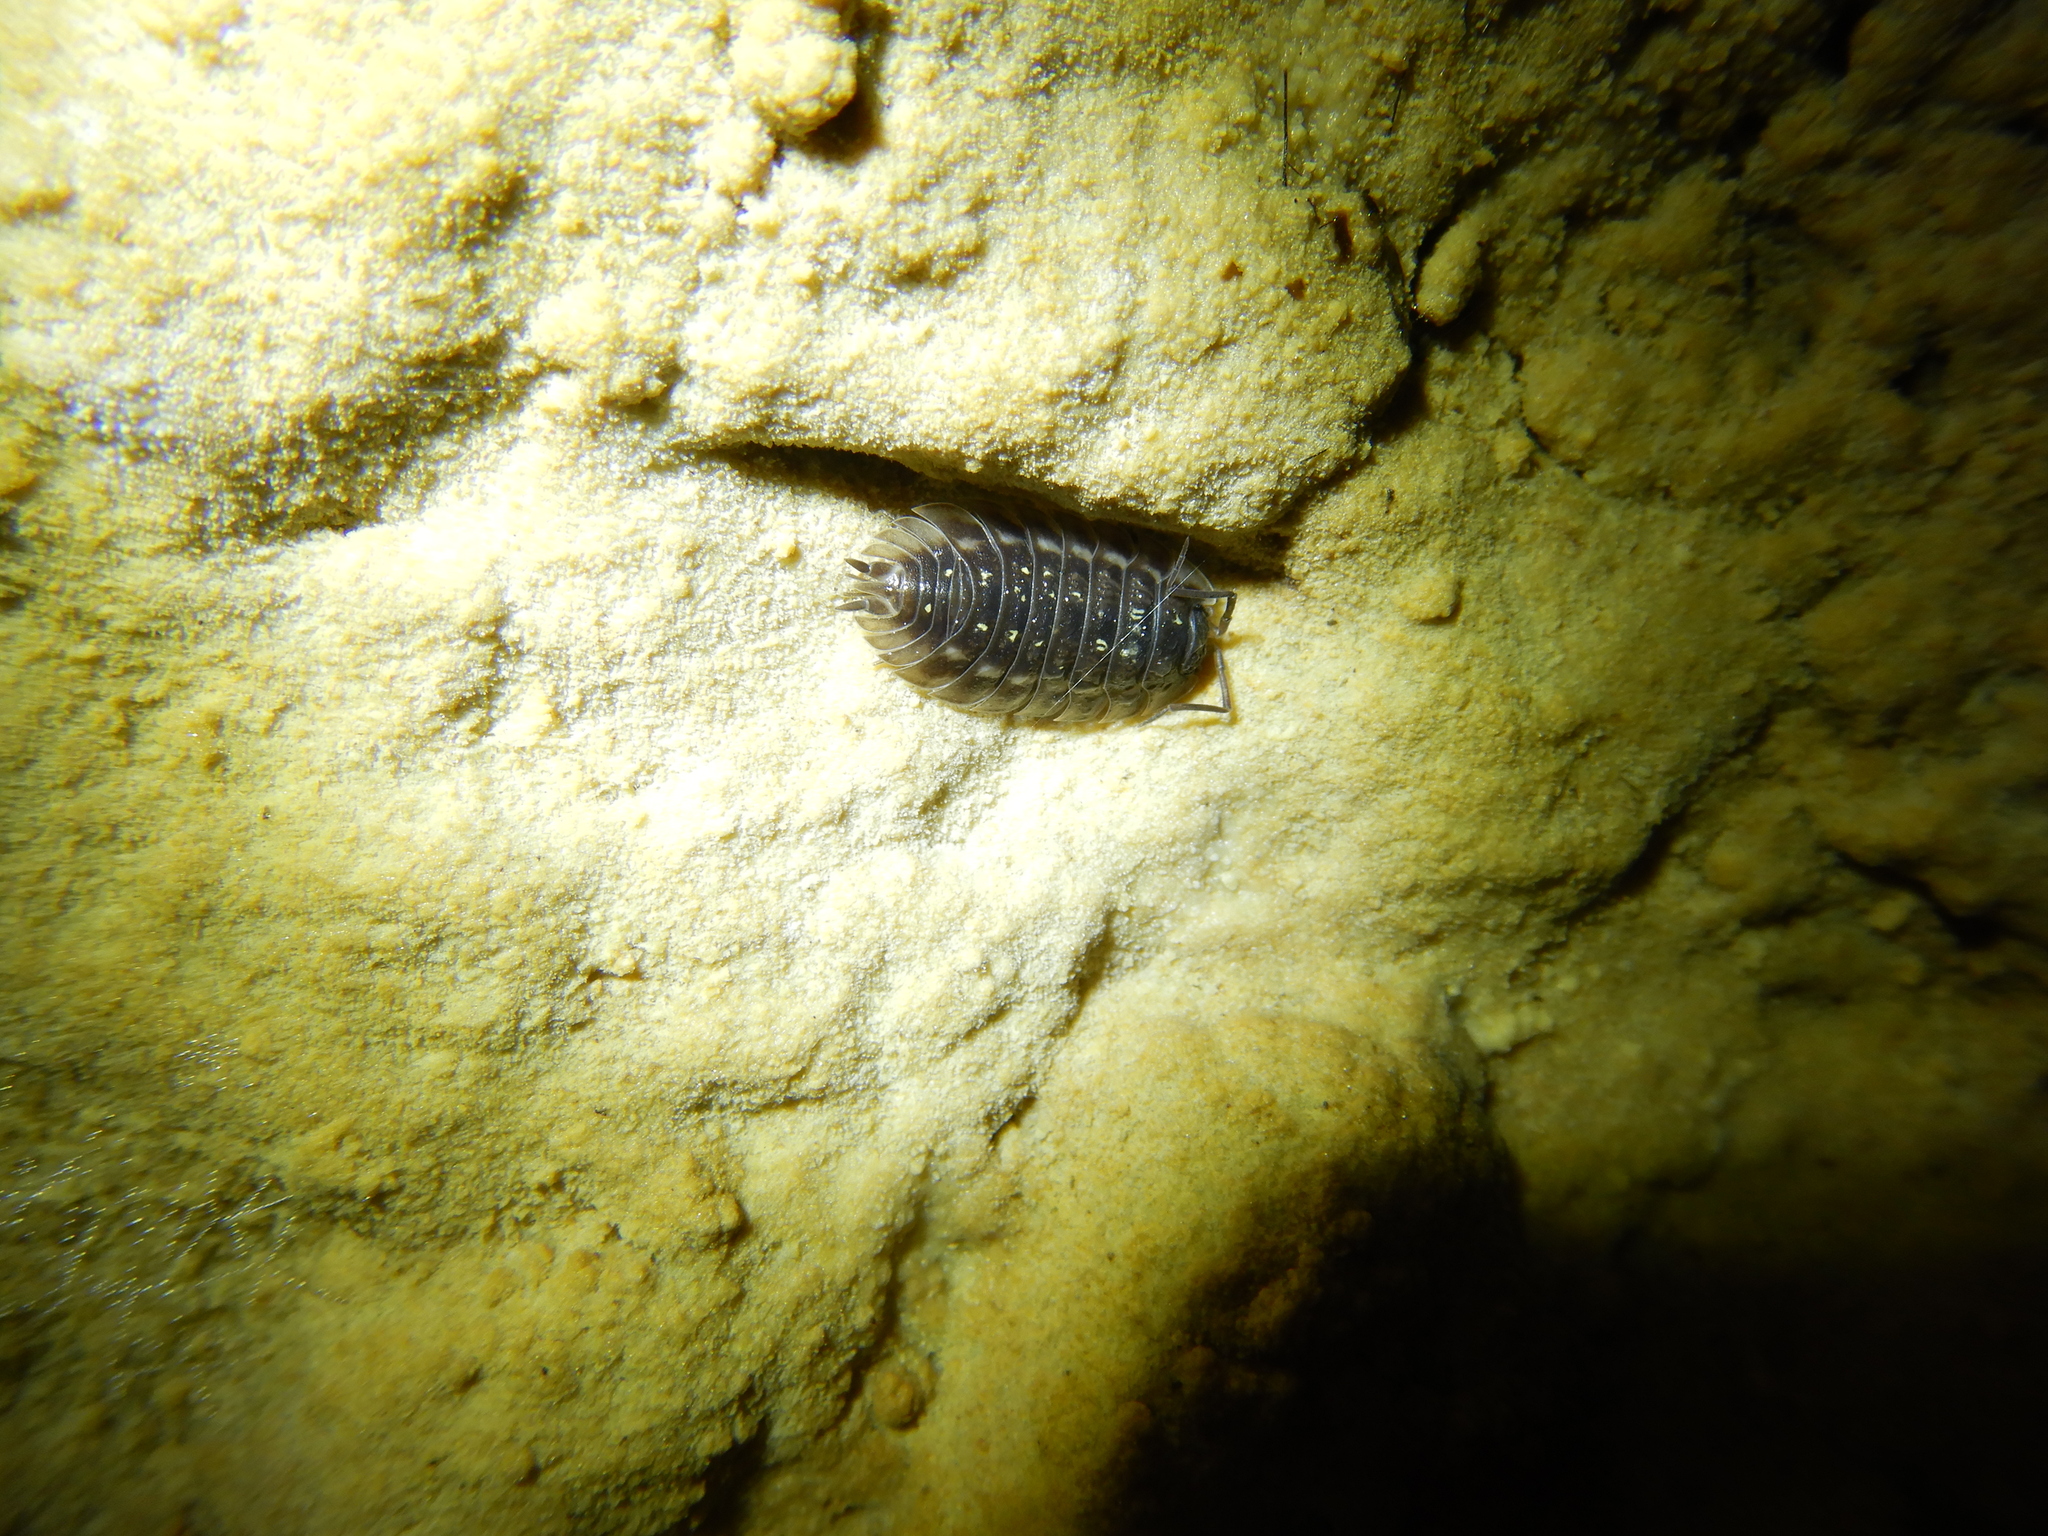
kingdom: Animalia
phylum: Arthropoda
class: Malacostraca
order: Isopoda
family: Oniscidae
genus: Oniscus
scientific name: Oniscus asellus
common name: Common shiny woodlouse
